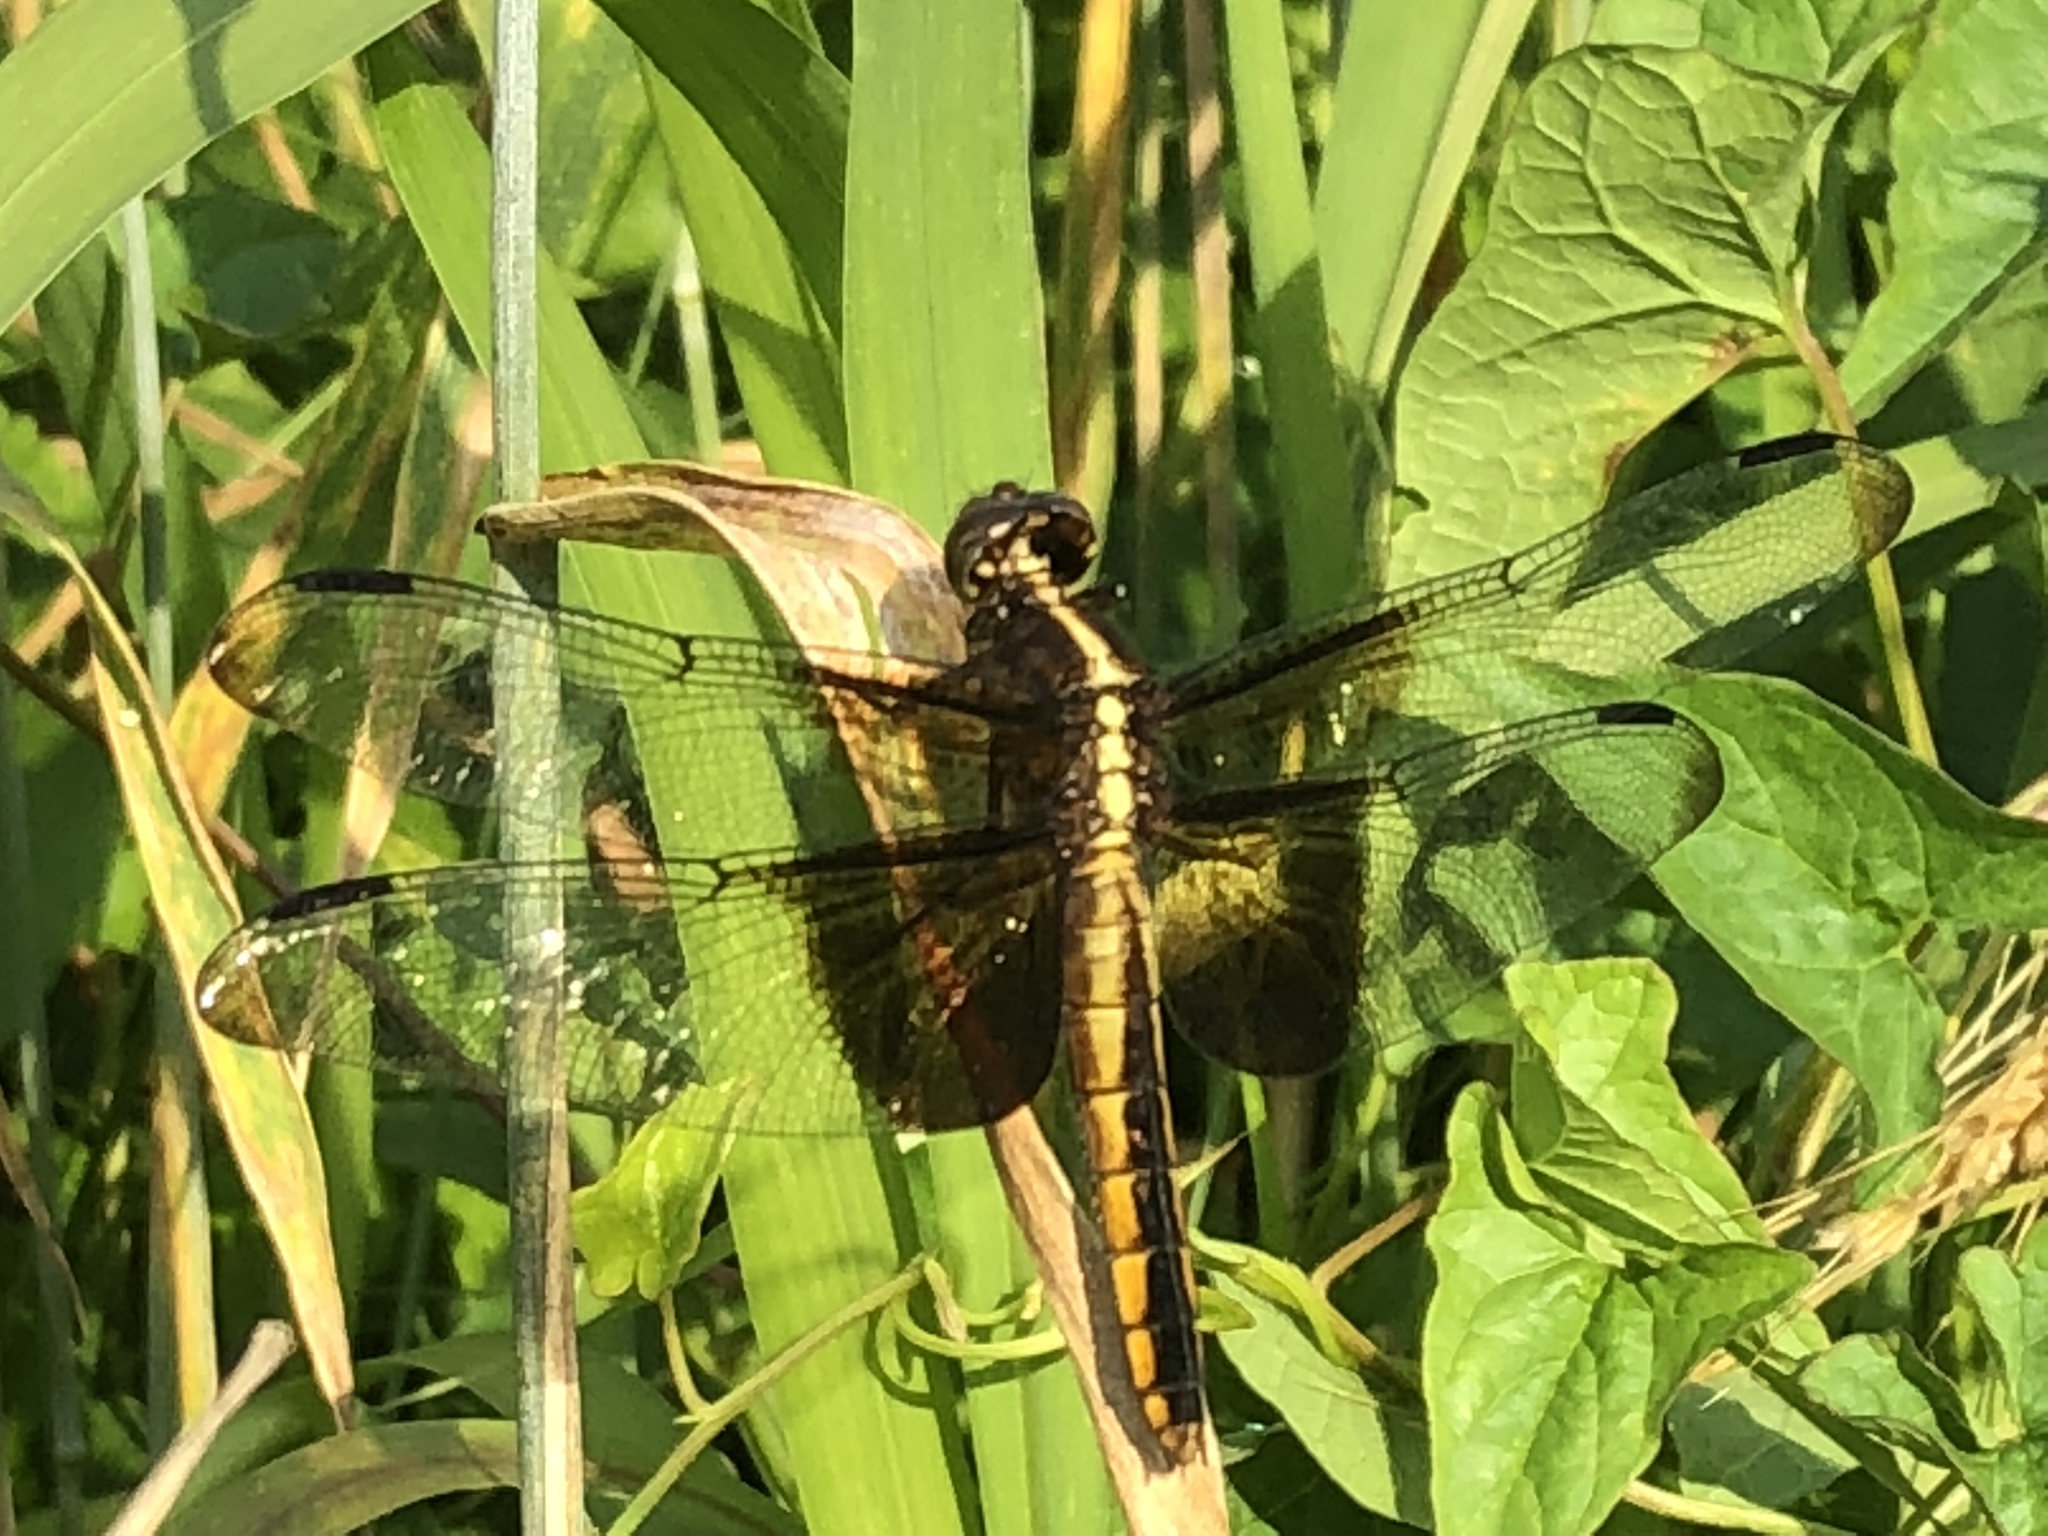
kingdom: Animalia
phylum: Arthropoda
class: Insecta
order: Odonata
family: Libellulidae
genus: Libellula
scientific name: Libellula luctuosa
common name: Widow skimmer
